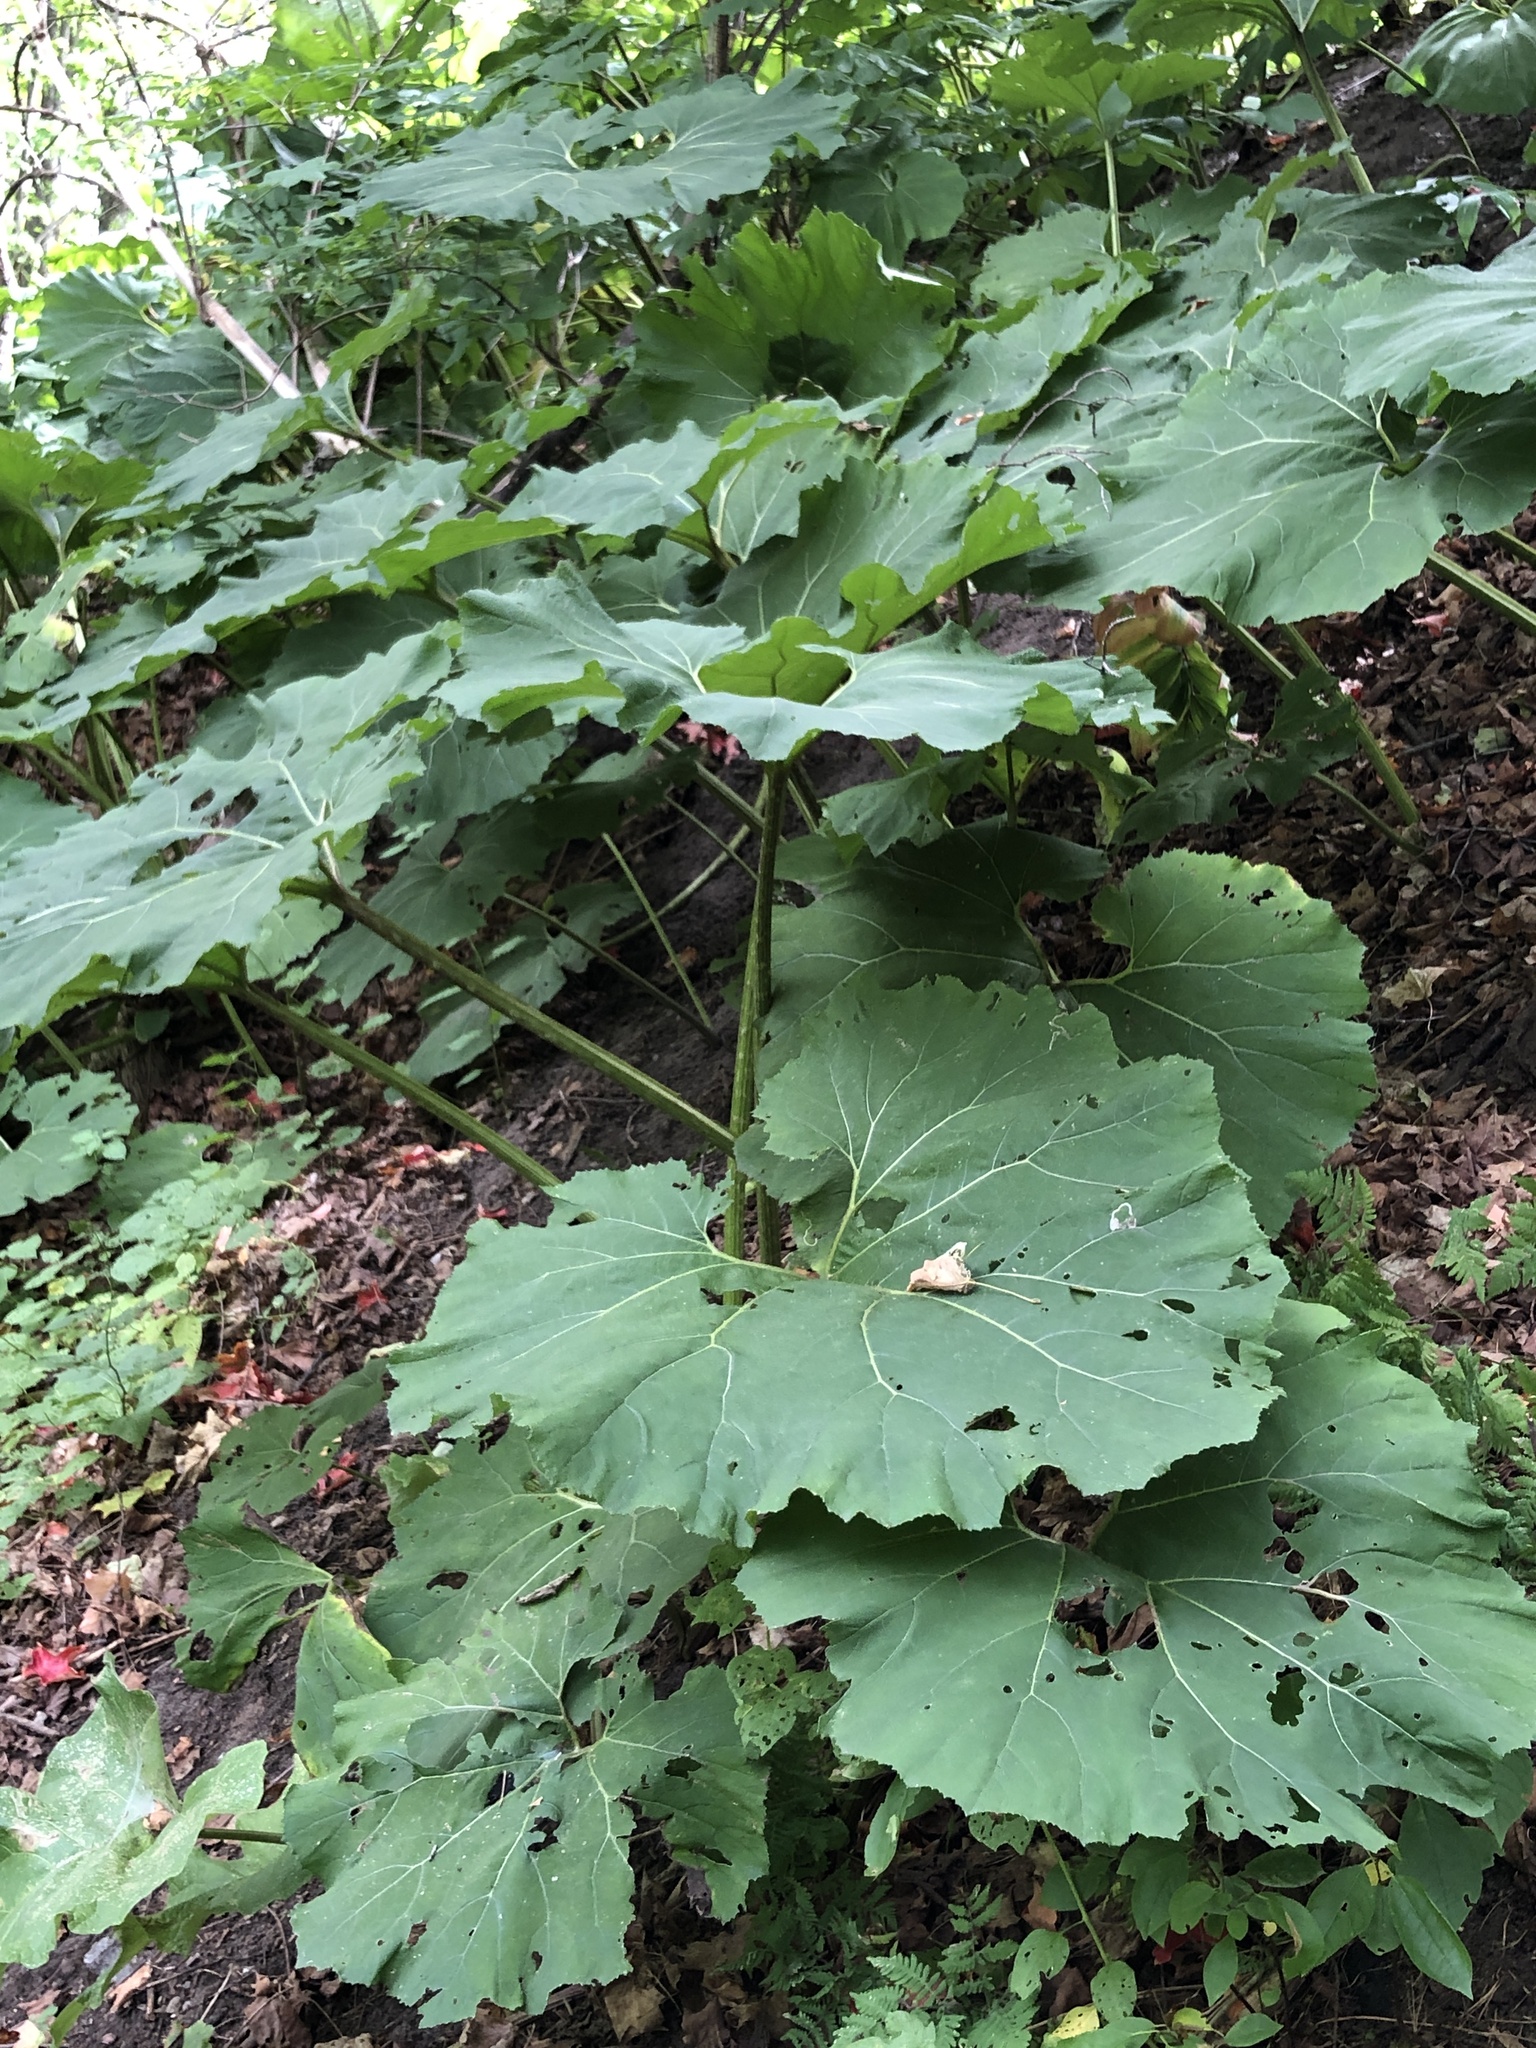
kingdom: Plantae
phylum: Tracheophyta
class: Magnoliopsida
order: Asterales
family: Asteraceae
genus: Petasites
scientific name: Petasites hybridus
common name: Butterbur
